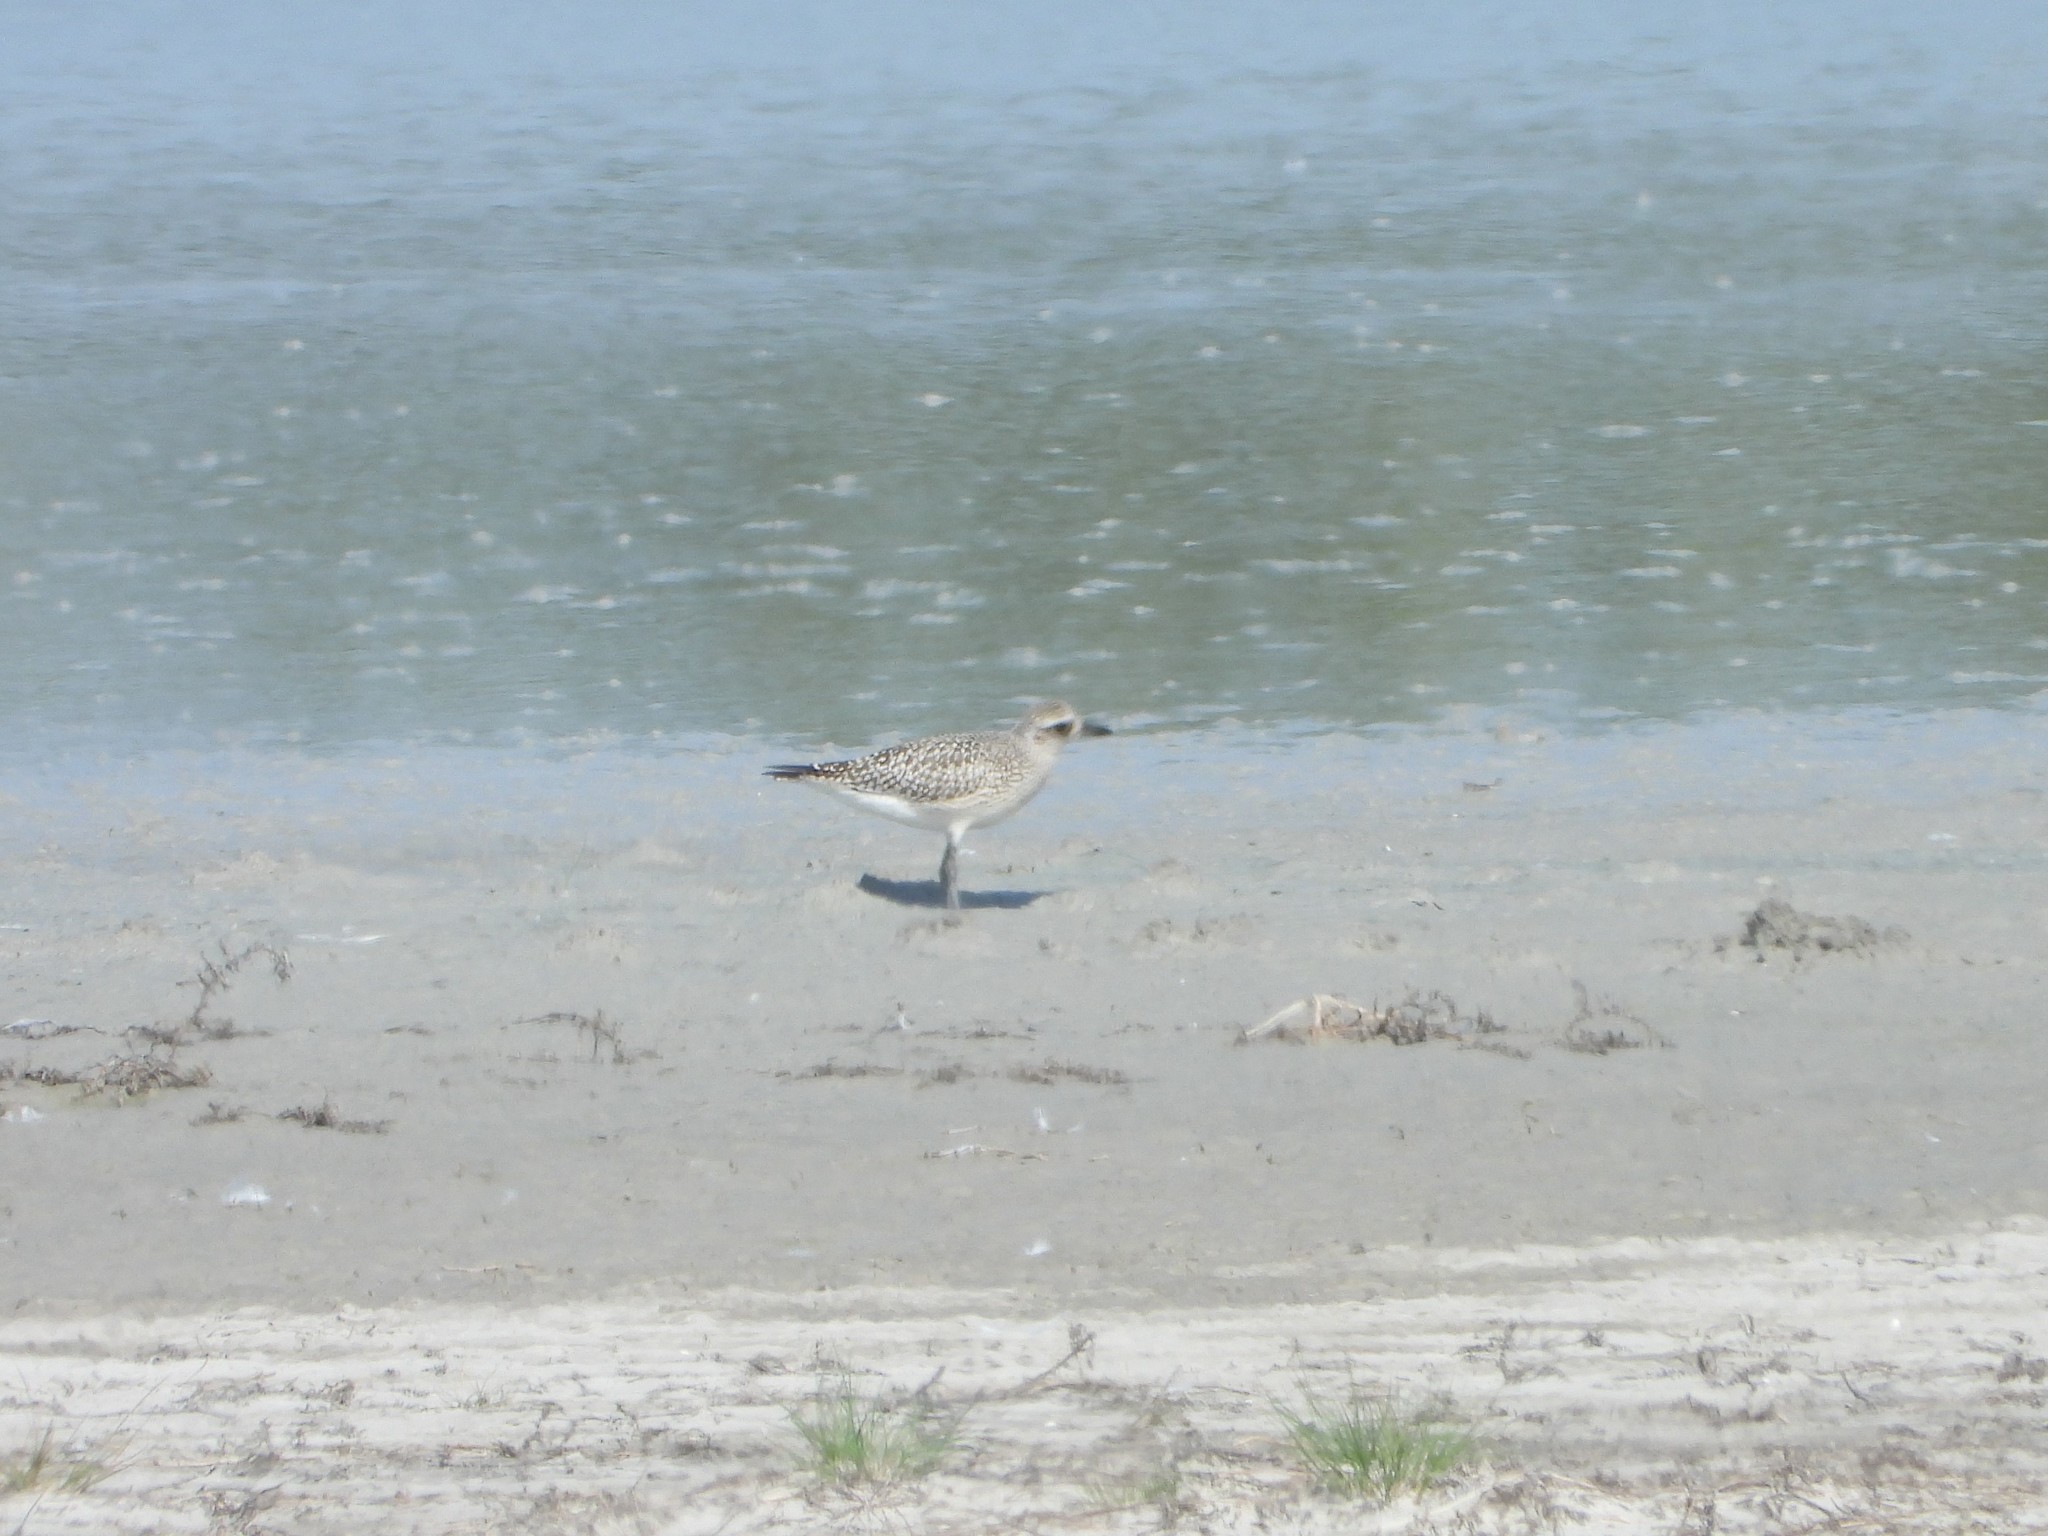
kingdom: Animalia
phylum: Chordata
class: Aves
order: Charadriiformes
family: Charadriidae
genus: Pluvialis
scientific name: Pluvialis squatarola
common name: Grey plover
